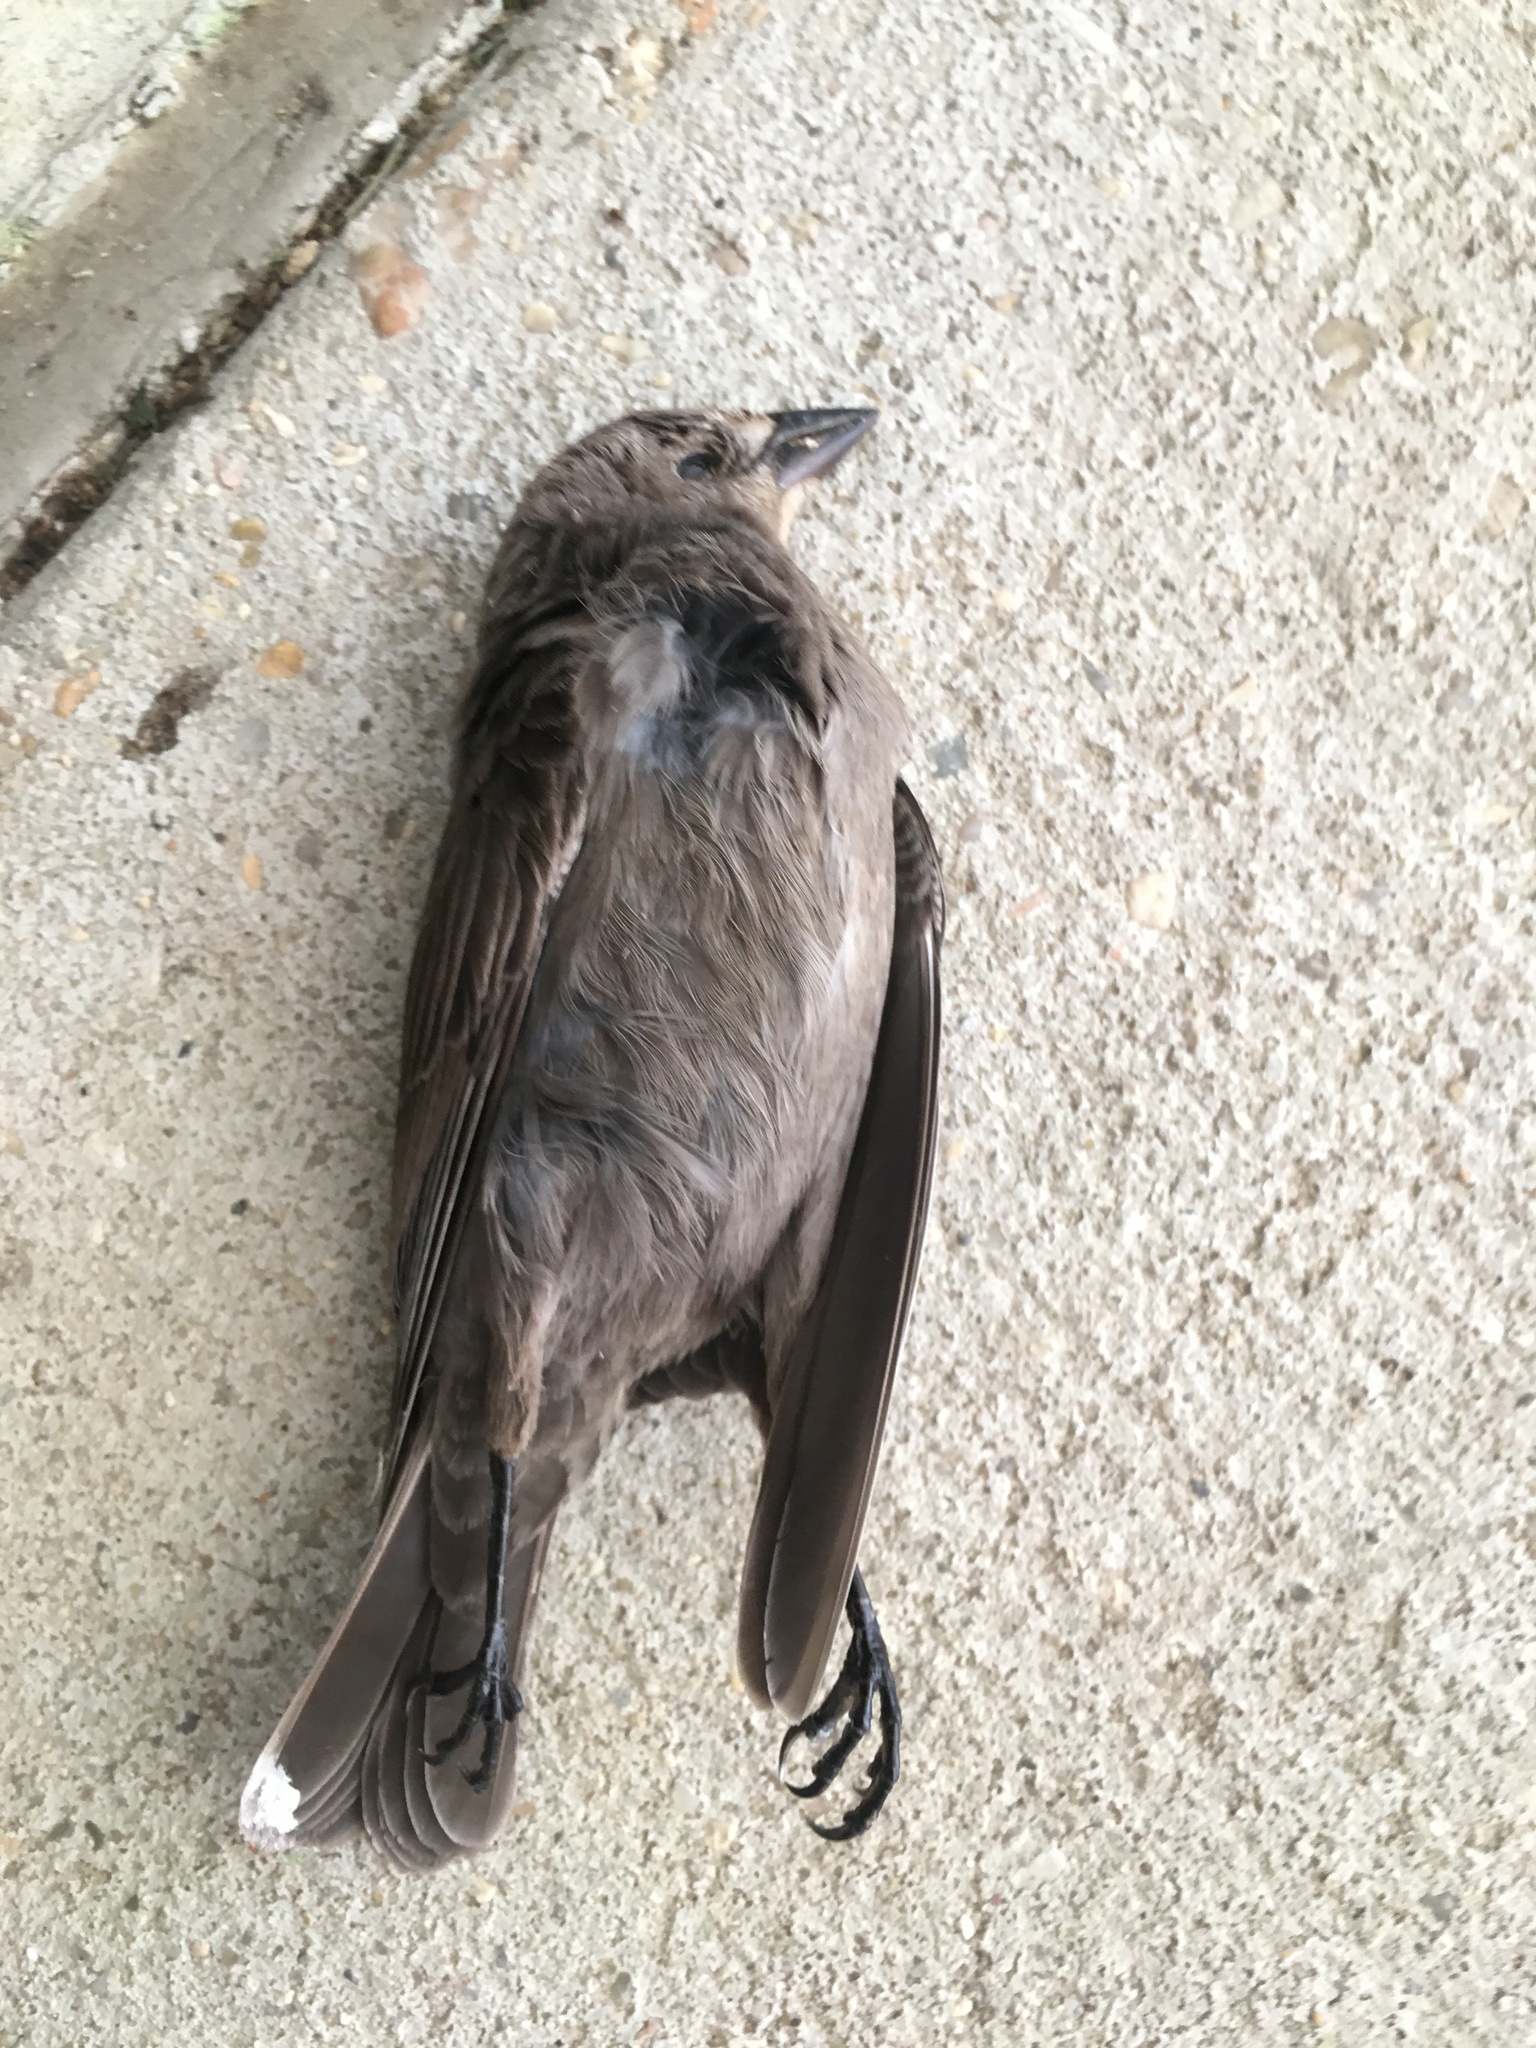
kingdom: Animalia
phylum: Chordata
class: Aves
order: Passeriformes
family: Icteridae
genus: Molothrus
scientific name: Molothrus ater
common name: Brown-headed cowbird
